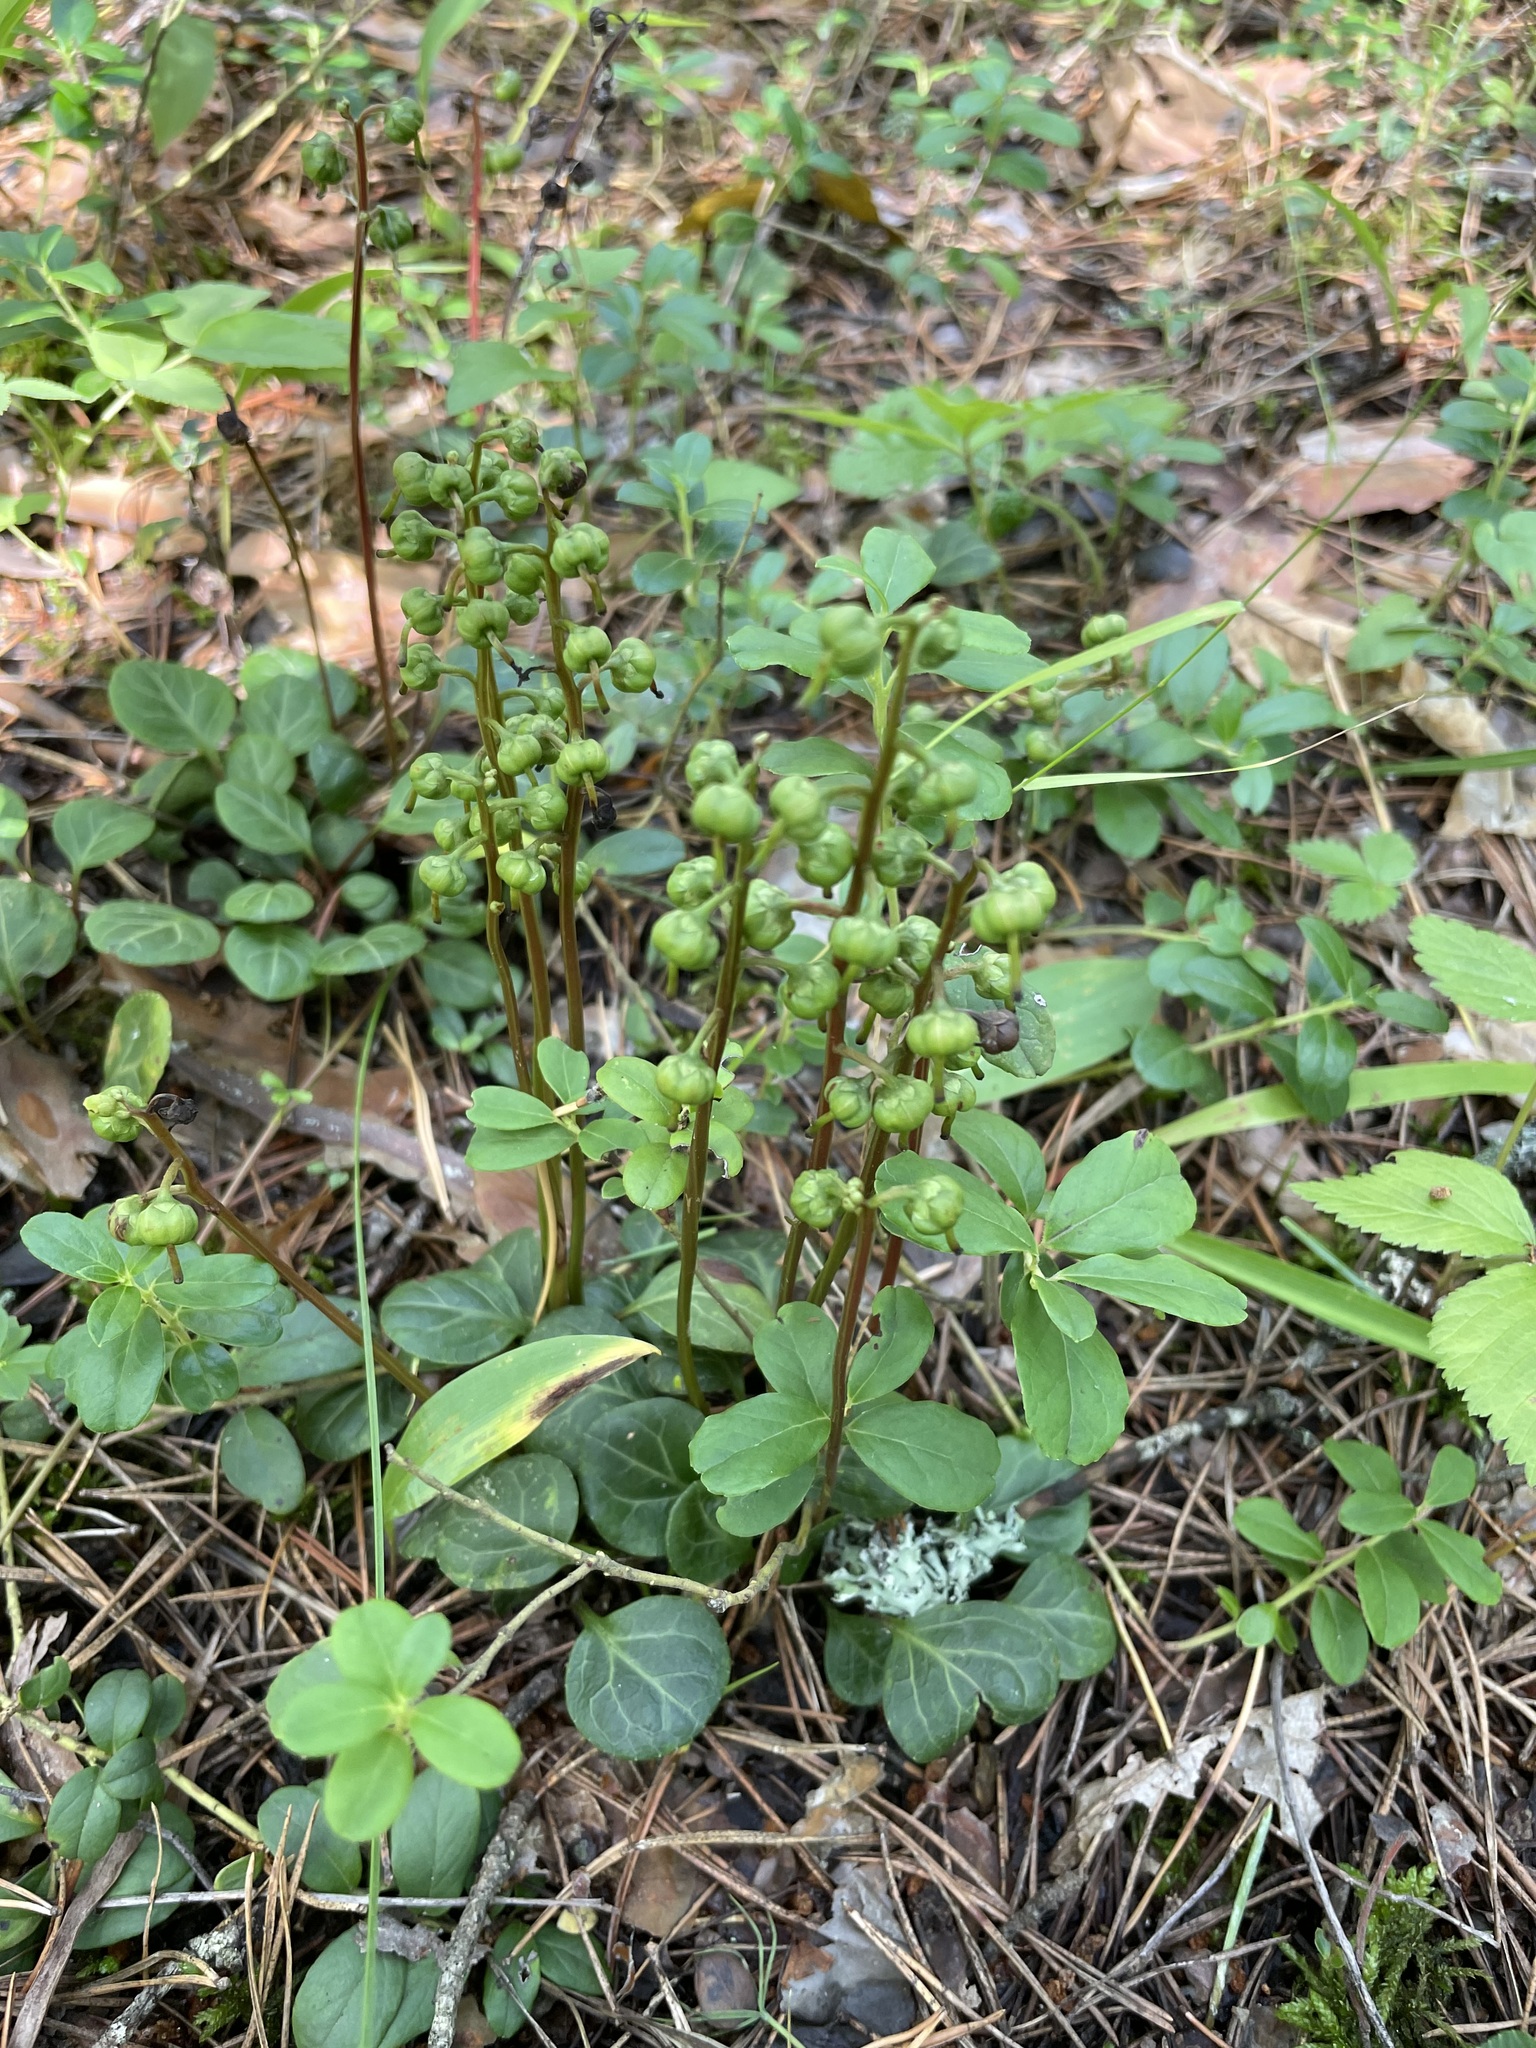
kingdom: Plantae
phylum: Tracheophyta
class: Magnoliopsida
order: Ericales
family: Ericaceae
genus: Pyrola
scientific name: Pyrola chlorantha
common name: Green wintergreen
